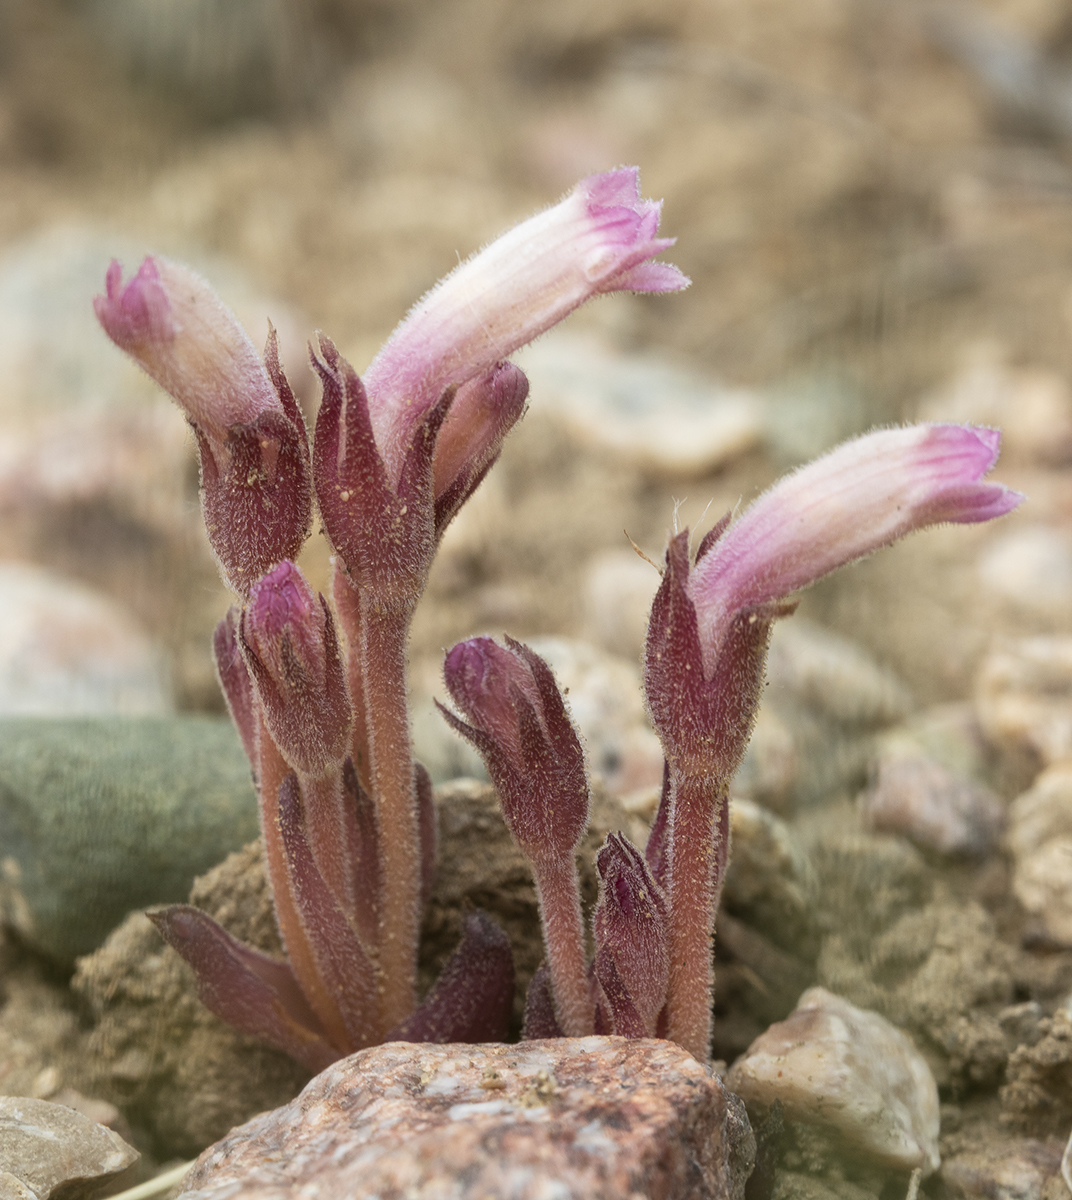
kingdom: Plantae
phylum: Tracheophyta
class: Magnoliopsida
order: Lamiales
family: Orobanchaceae
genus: Aphyllon
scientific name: Aphyllon fasciculatum
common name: Clustered broomrape
